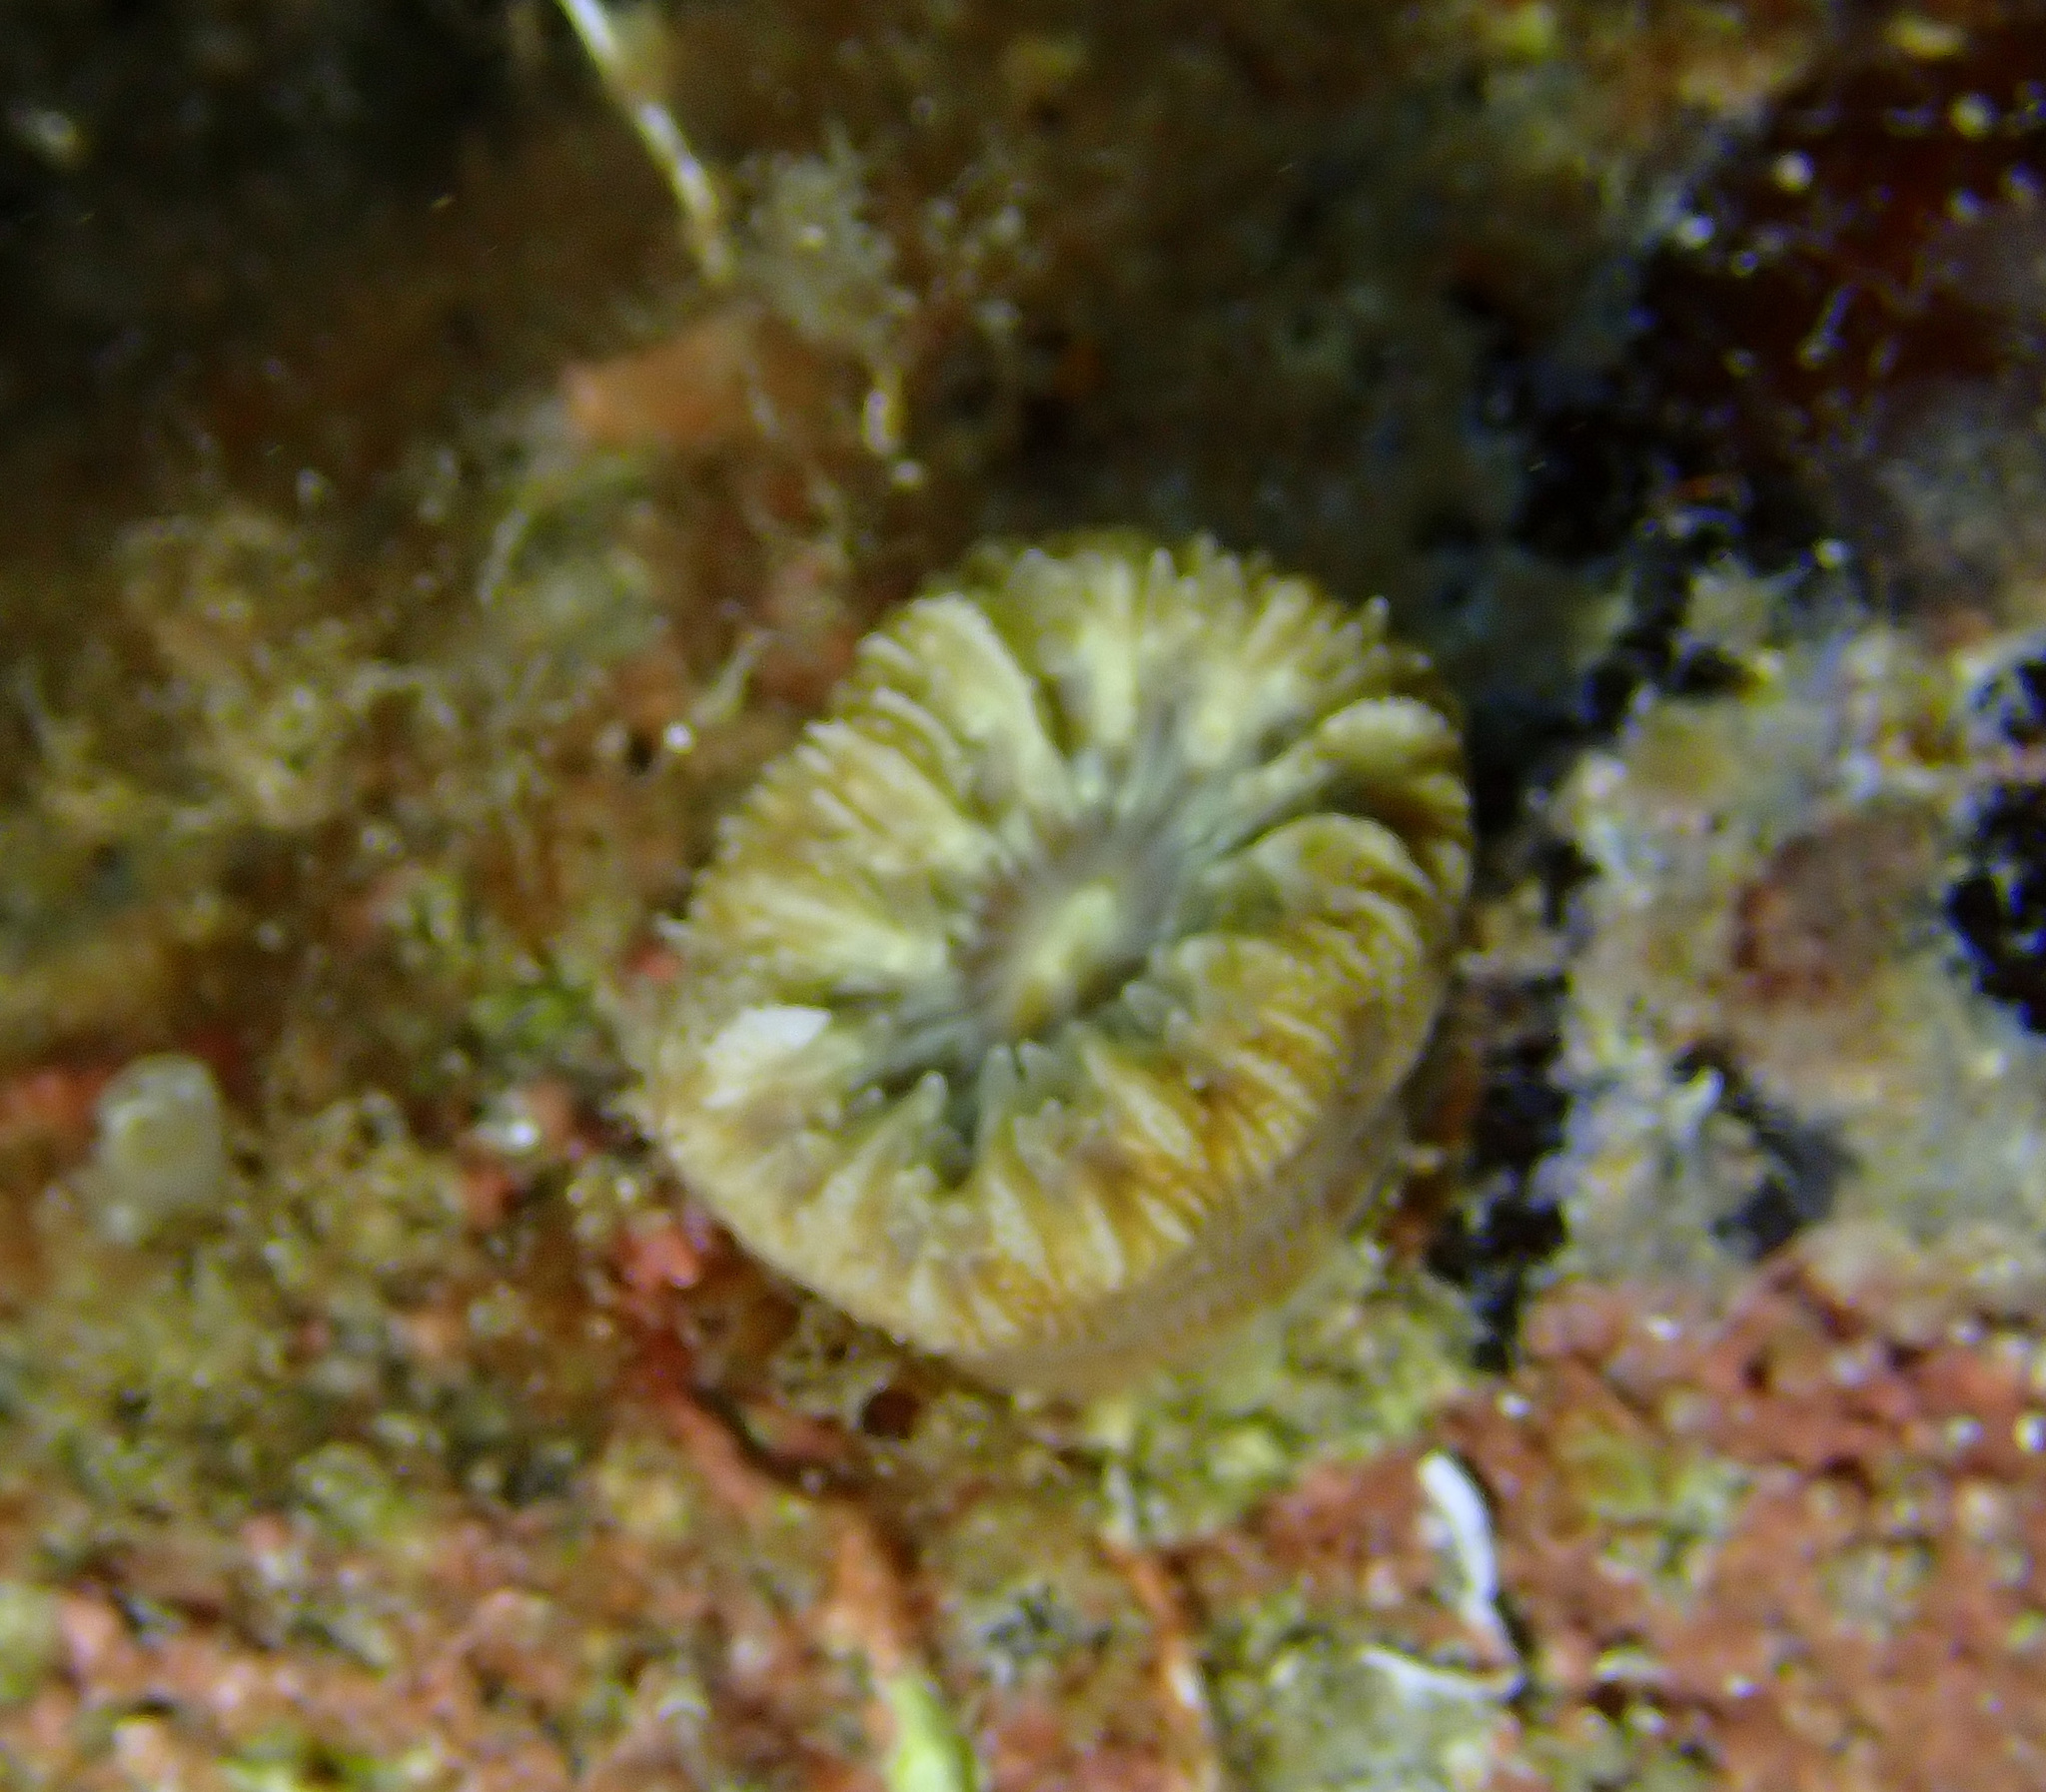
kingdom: Animalia
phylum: Cnidaria
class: Anthozoa
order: Scleractinia
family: Dendrophylliidae
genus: Balanophyllia
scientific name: Balanophyllia europaea
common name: Scarlet coral
